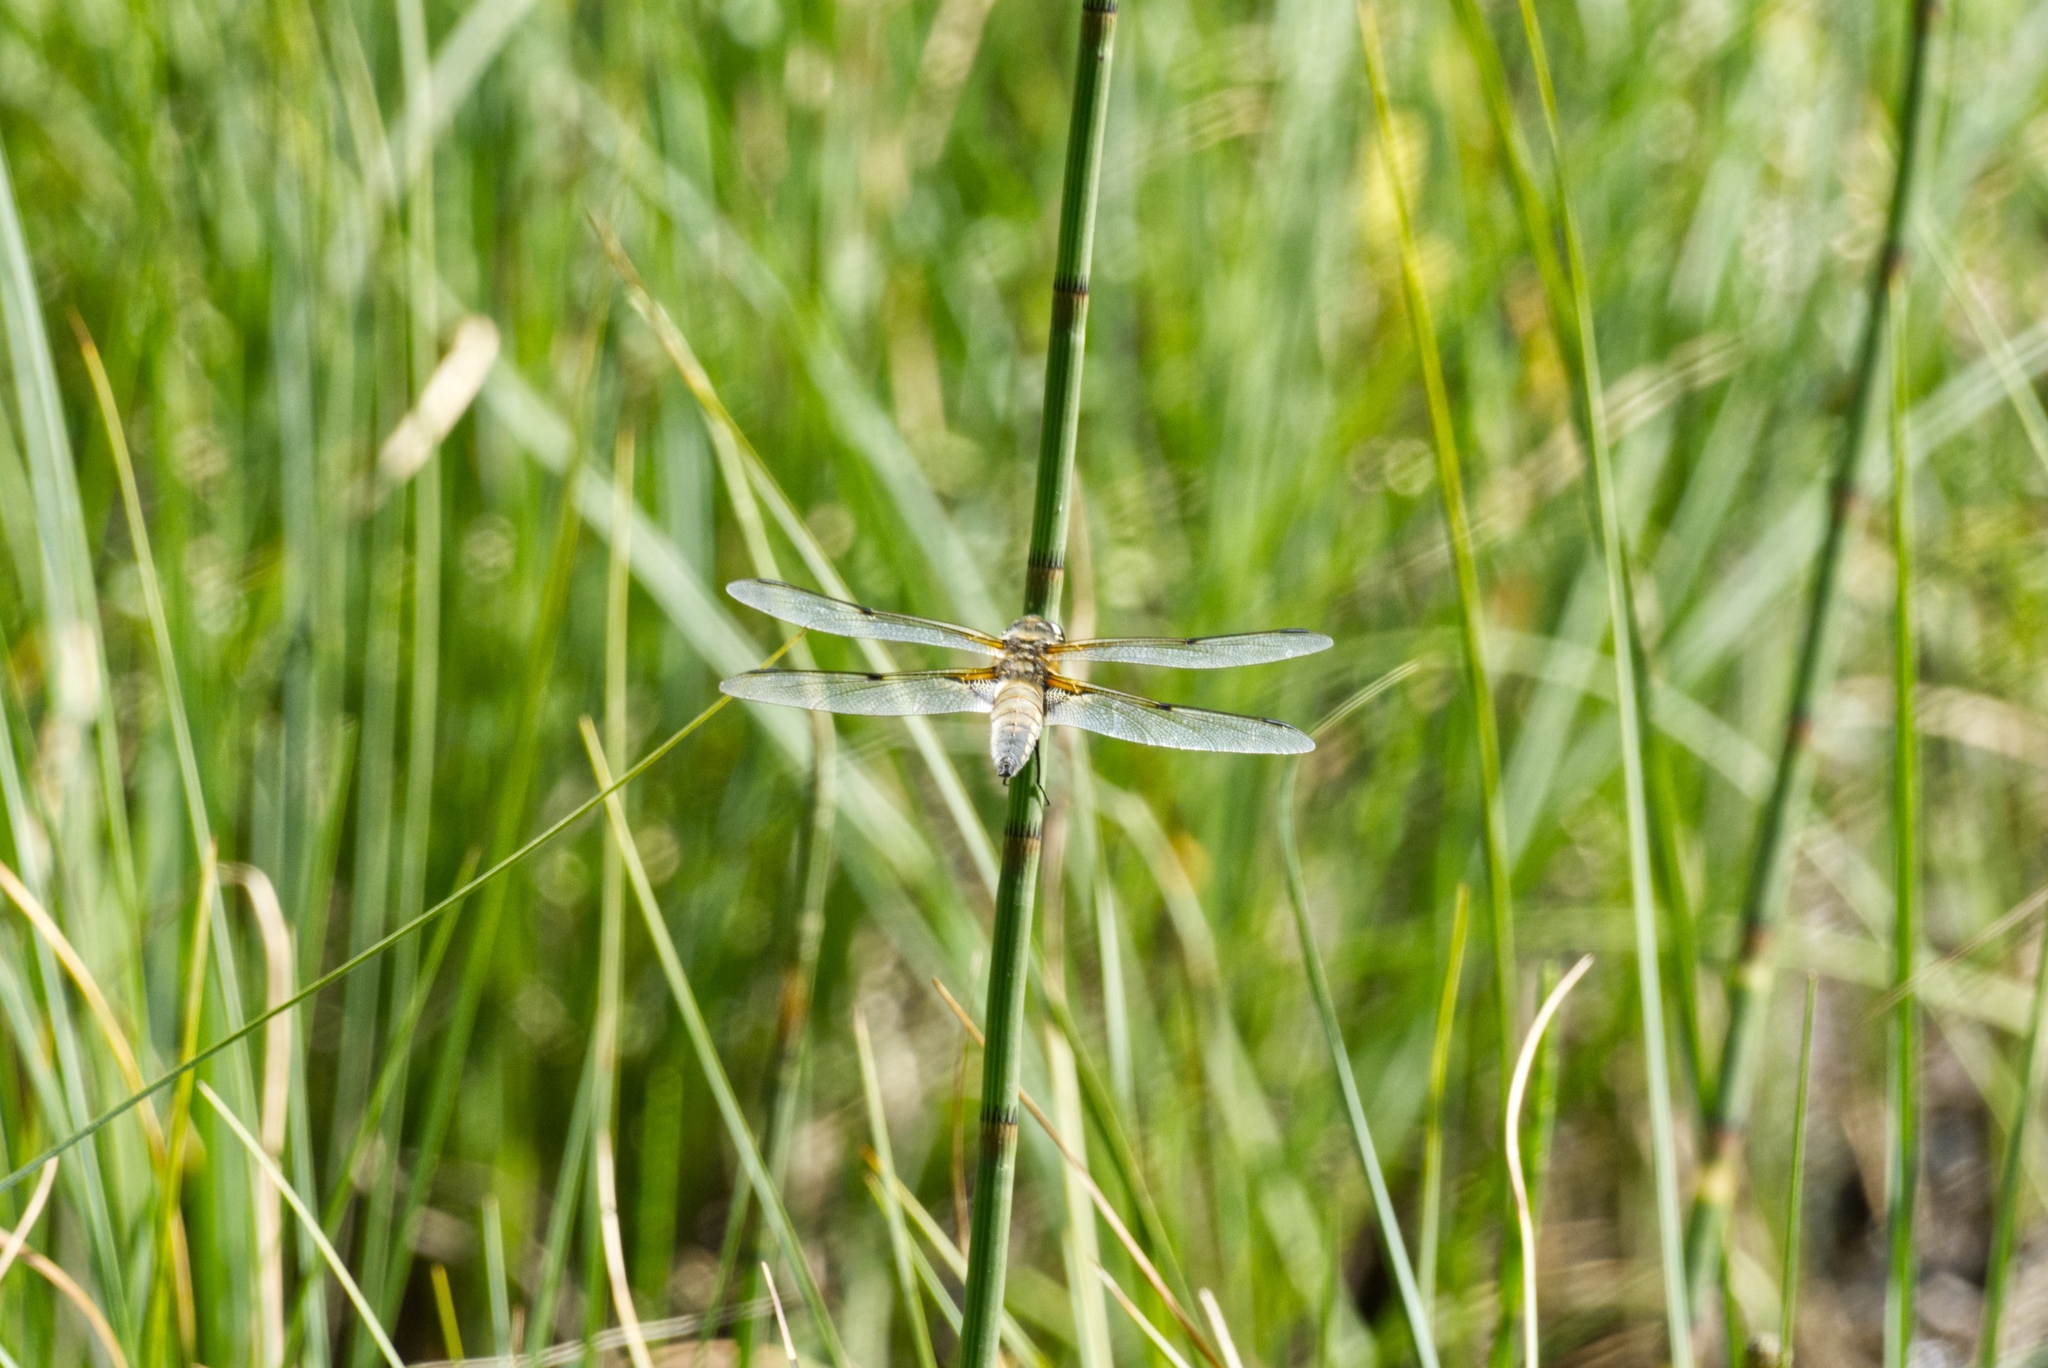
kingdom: Animalia
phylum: Arthropoda
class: Insecta
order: Odonata
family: Libellulidae
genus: Libellula
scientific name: Libellula quadrimaculata
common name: Four-spotted chaser
